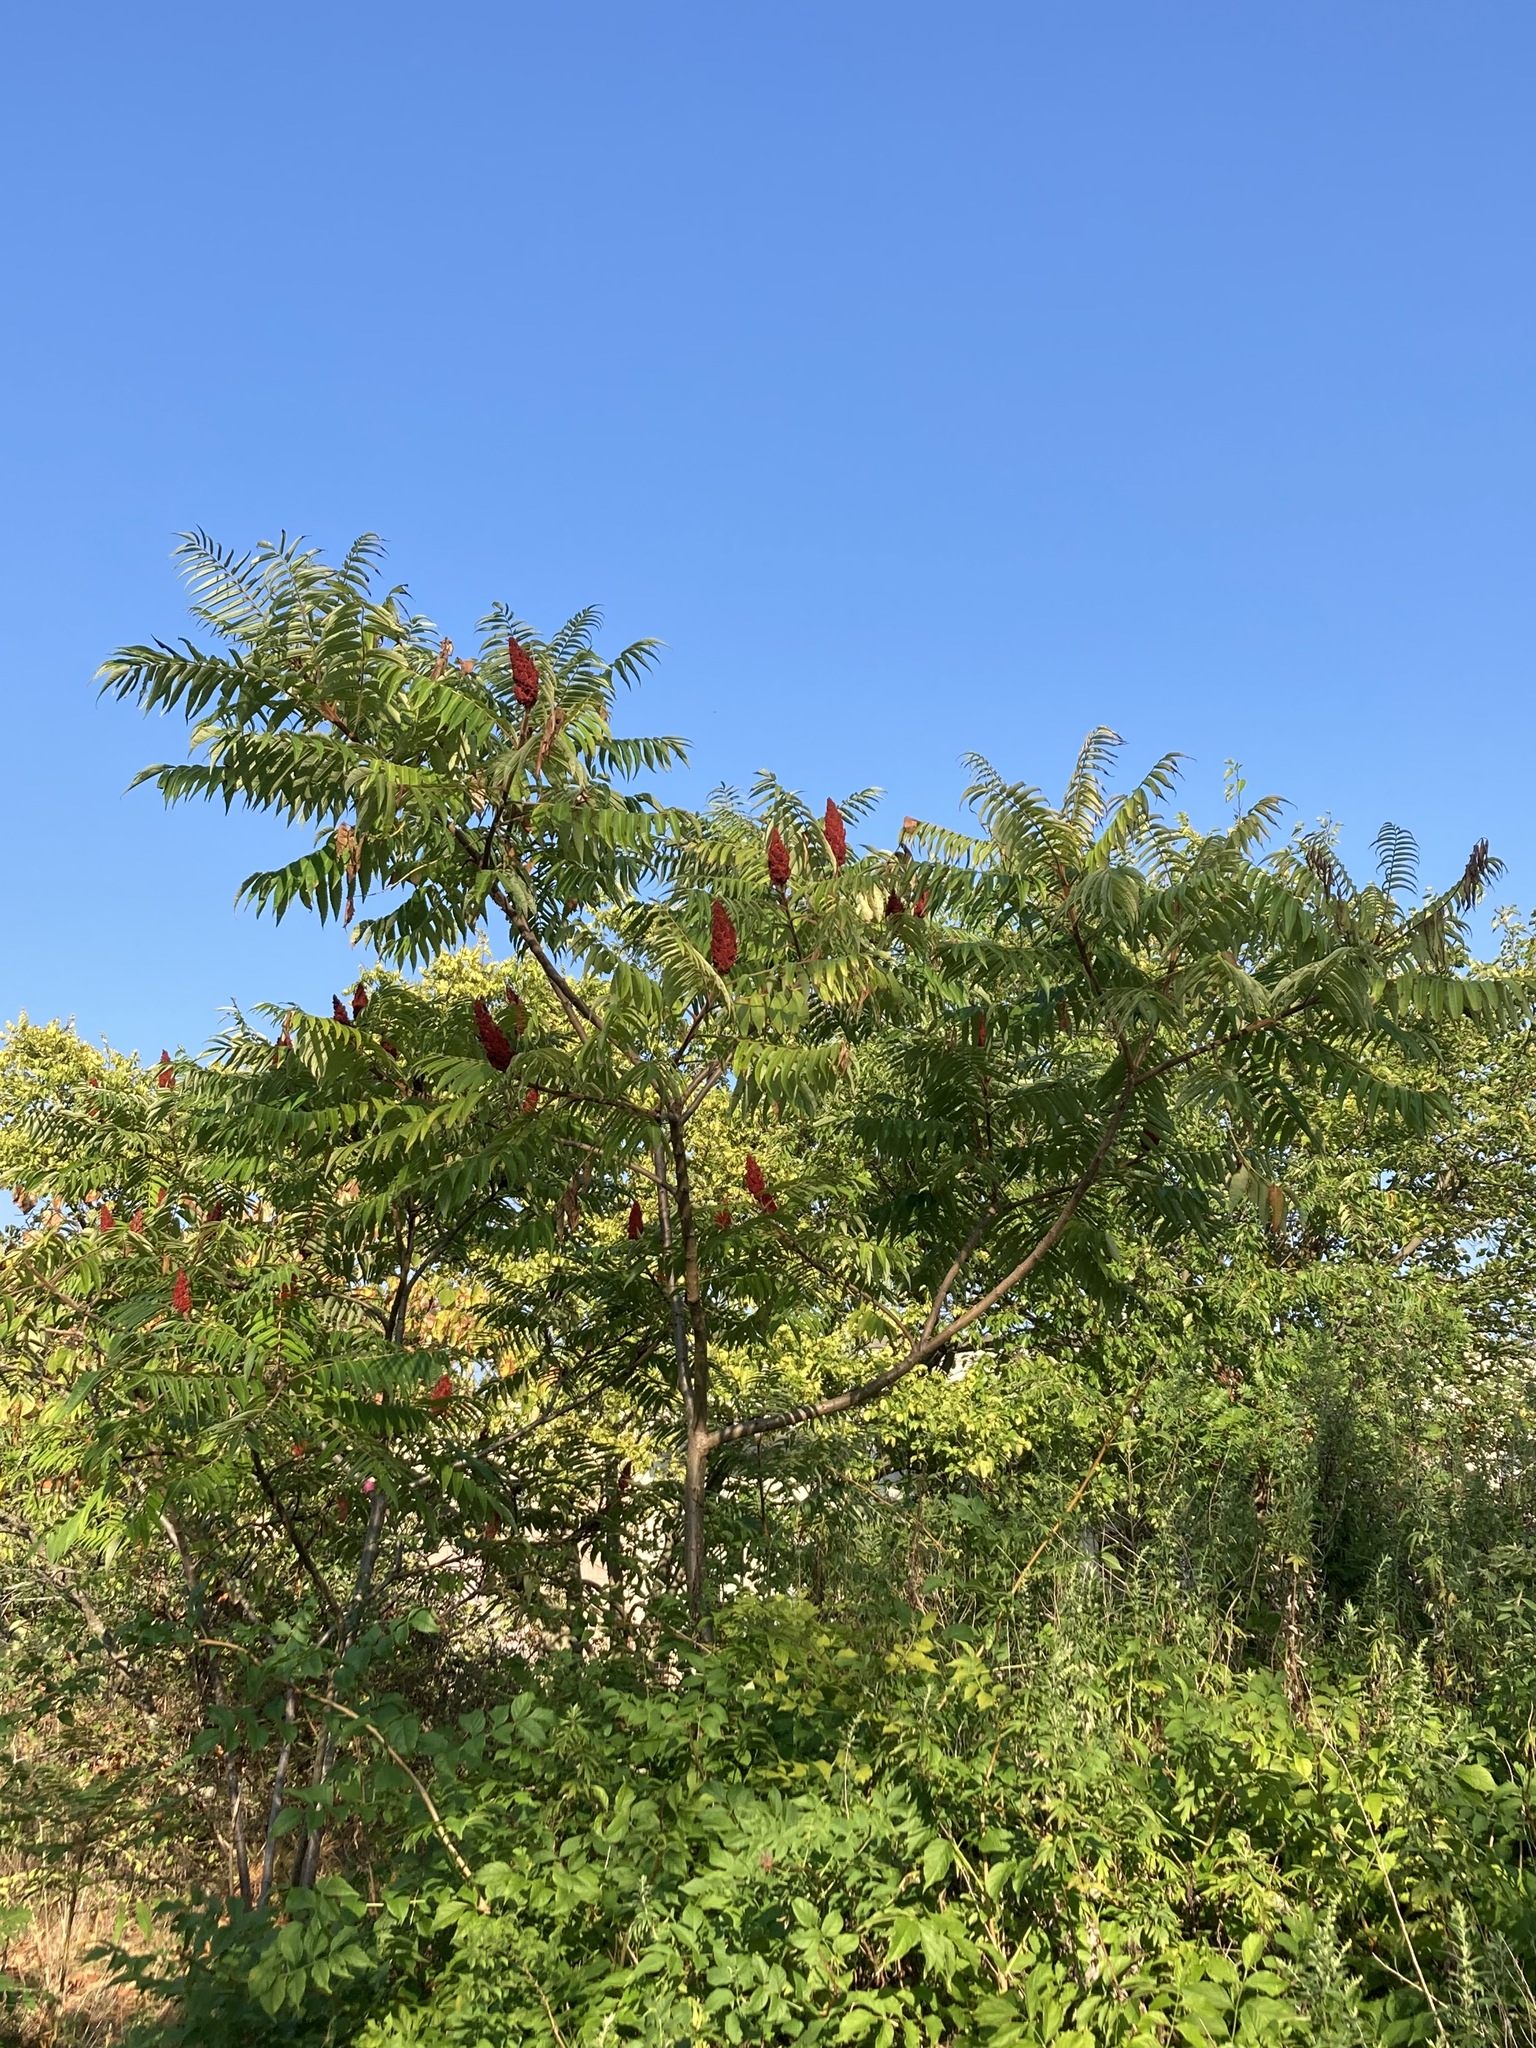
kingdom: Plantae
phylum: Tracheophyta
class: Magnoliopsida
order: Sapindales
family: Anacardiaceae
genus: Rhus
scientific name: Rhus typhina
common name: Staghorn sumac
